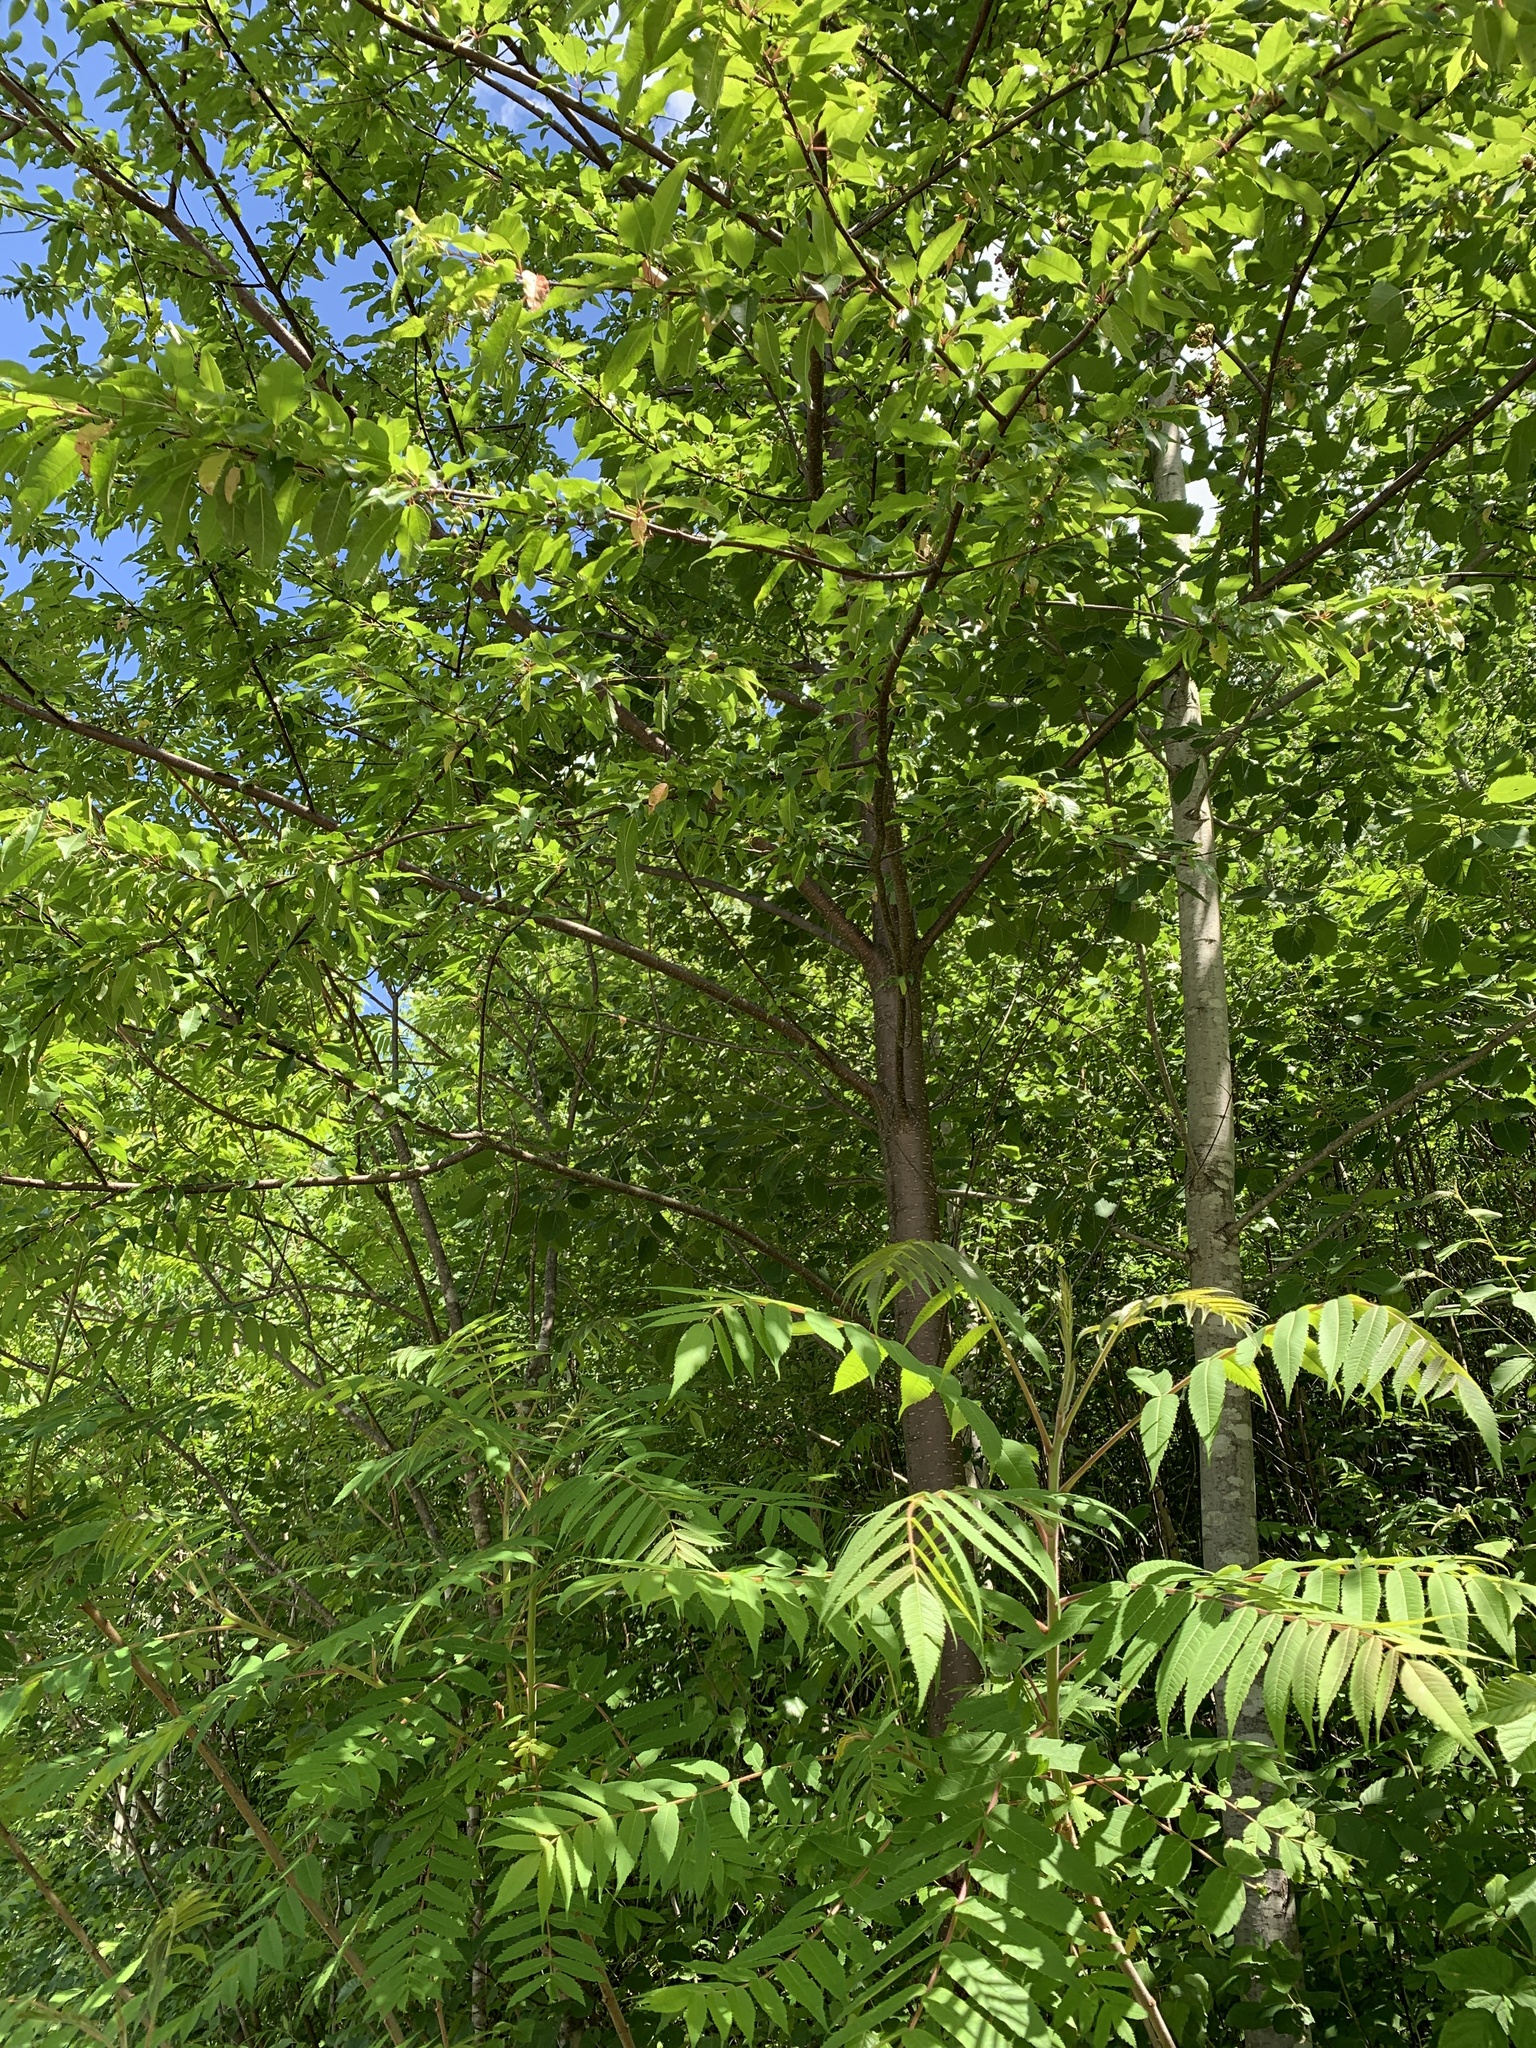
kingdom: Plantae
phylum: Tracheophyta
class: Magnoliopsida
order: Rosales
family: Rosaceae
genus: Prunus
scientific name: Prunus pensylvanica
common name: Pin cherry
